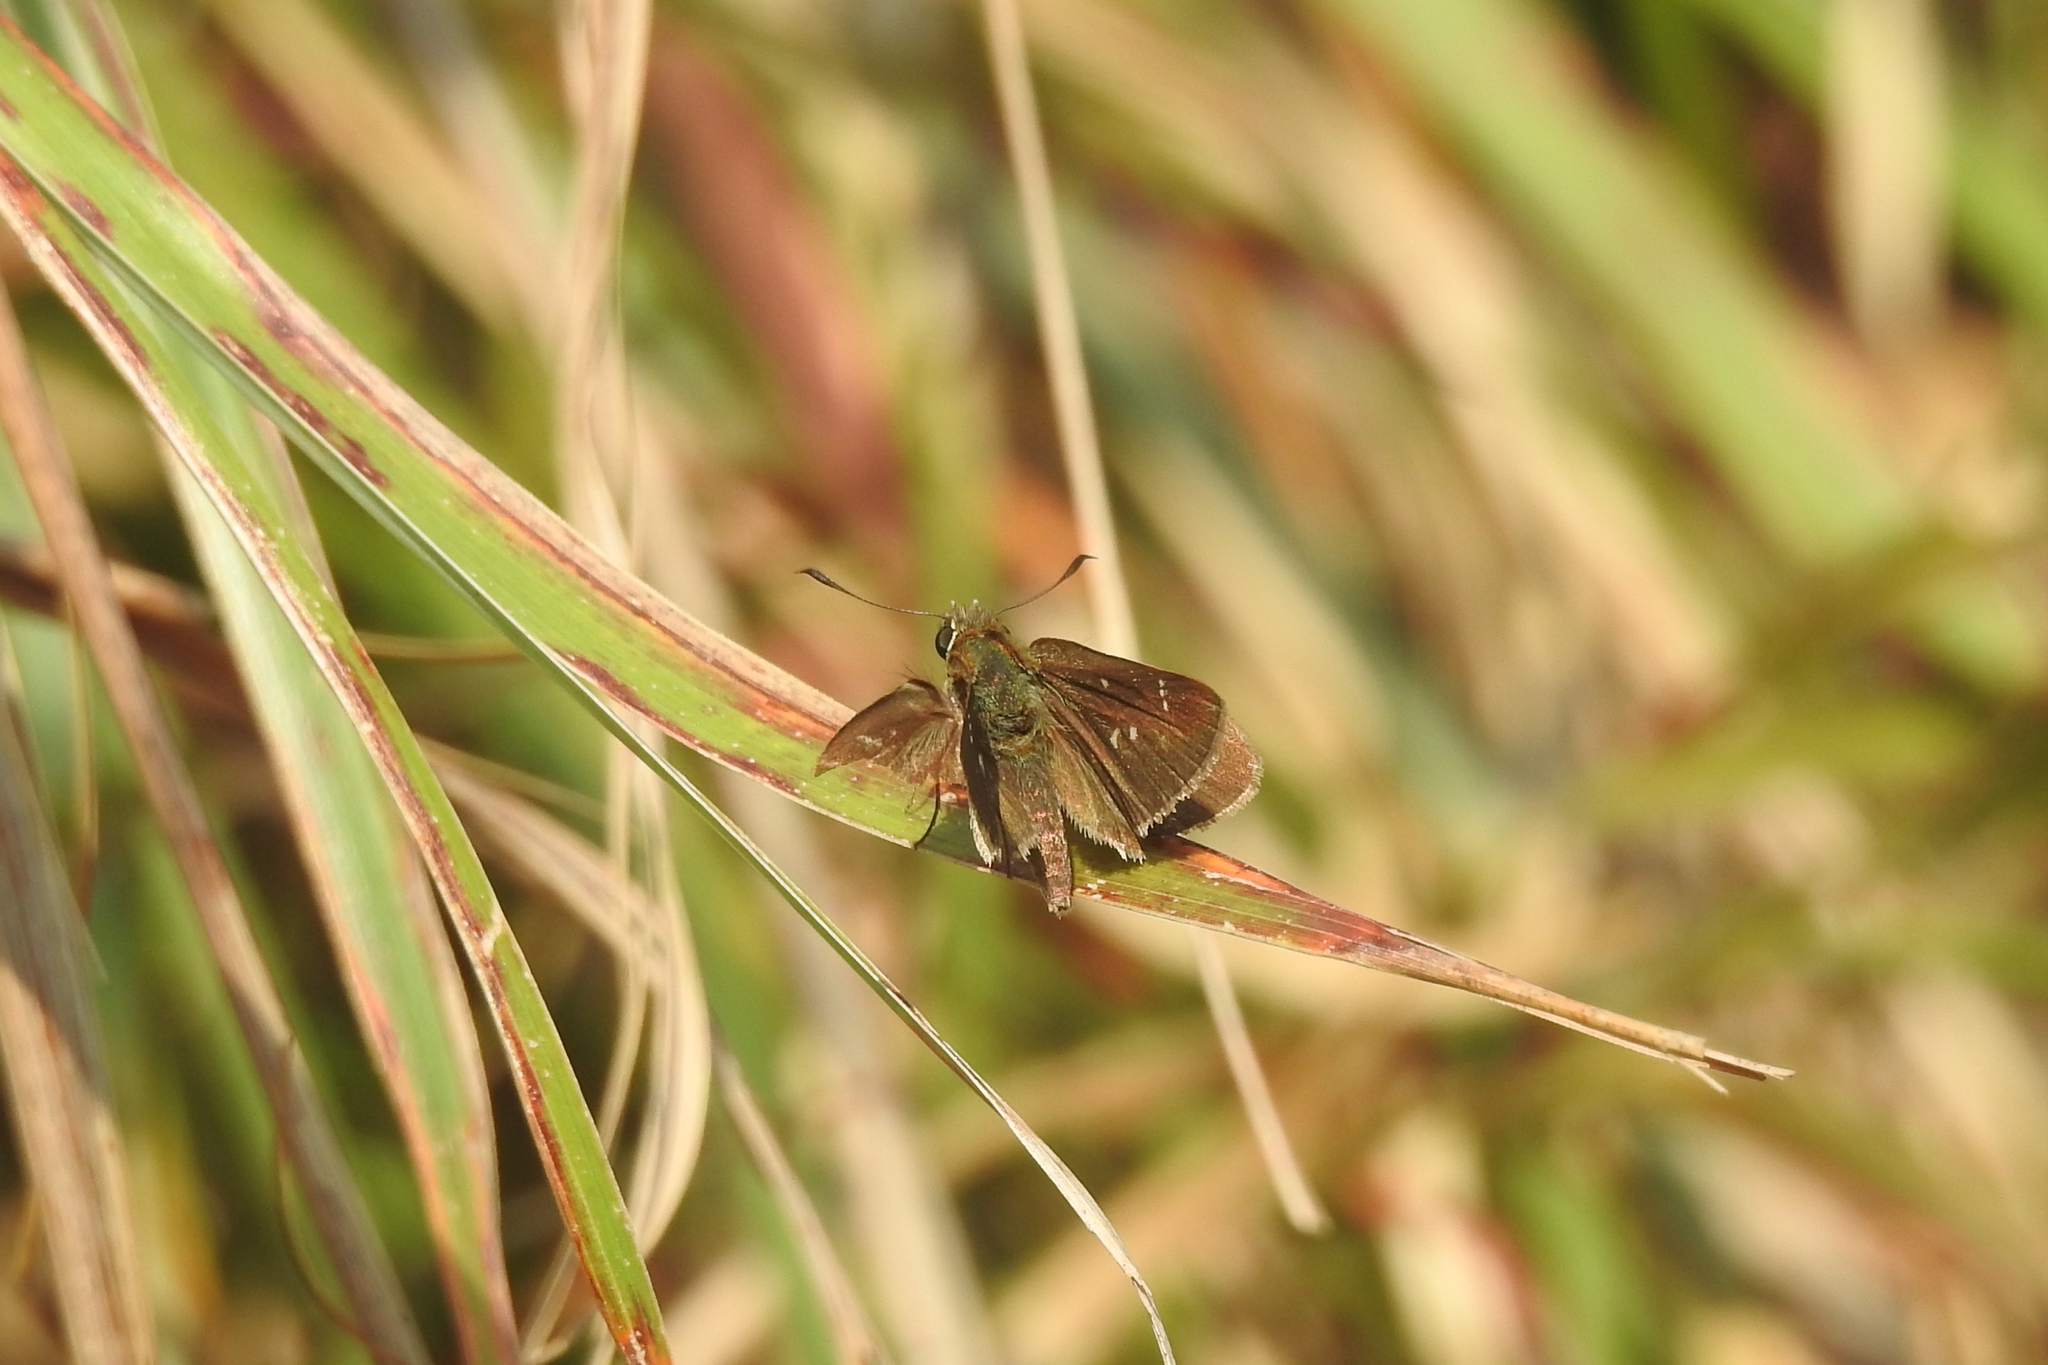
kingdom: Animalia
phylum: Arthropoda
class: Insecta
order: Lepidoptera
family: Hesperiidae
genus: Arnetta
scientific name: Arnetta vindhiana
